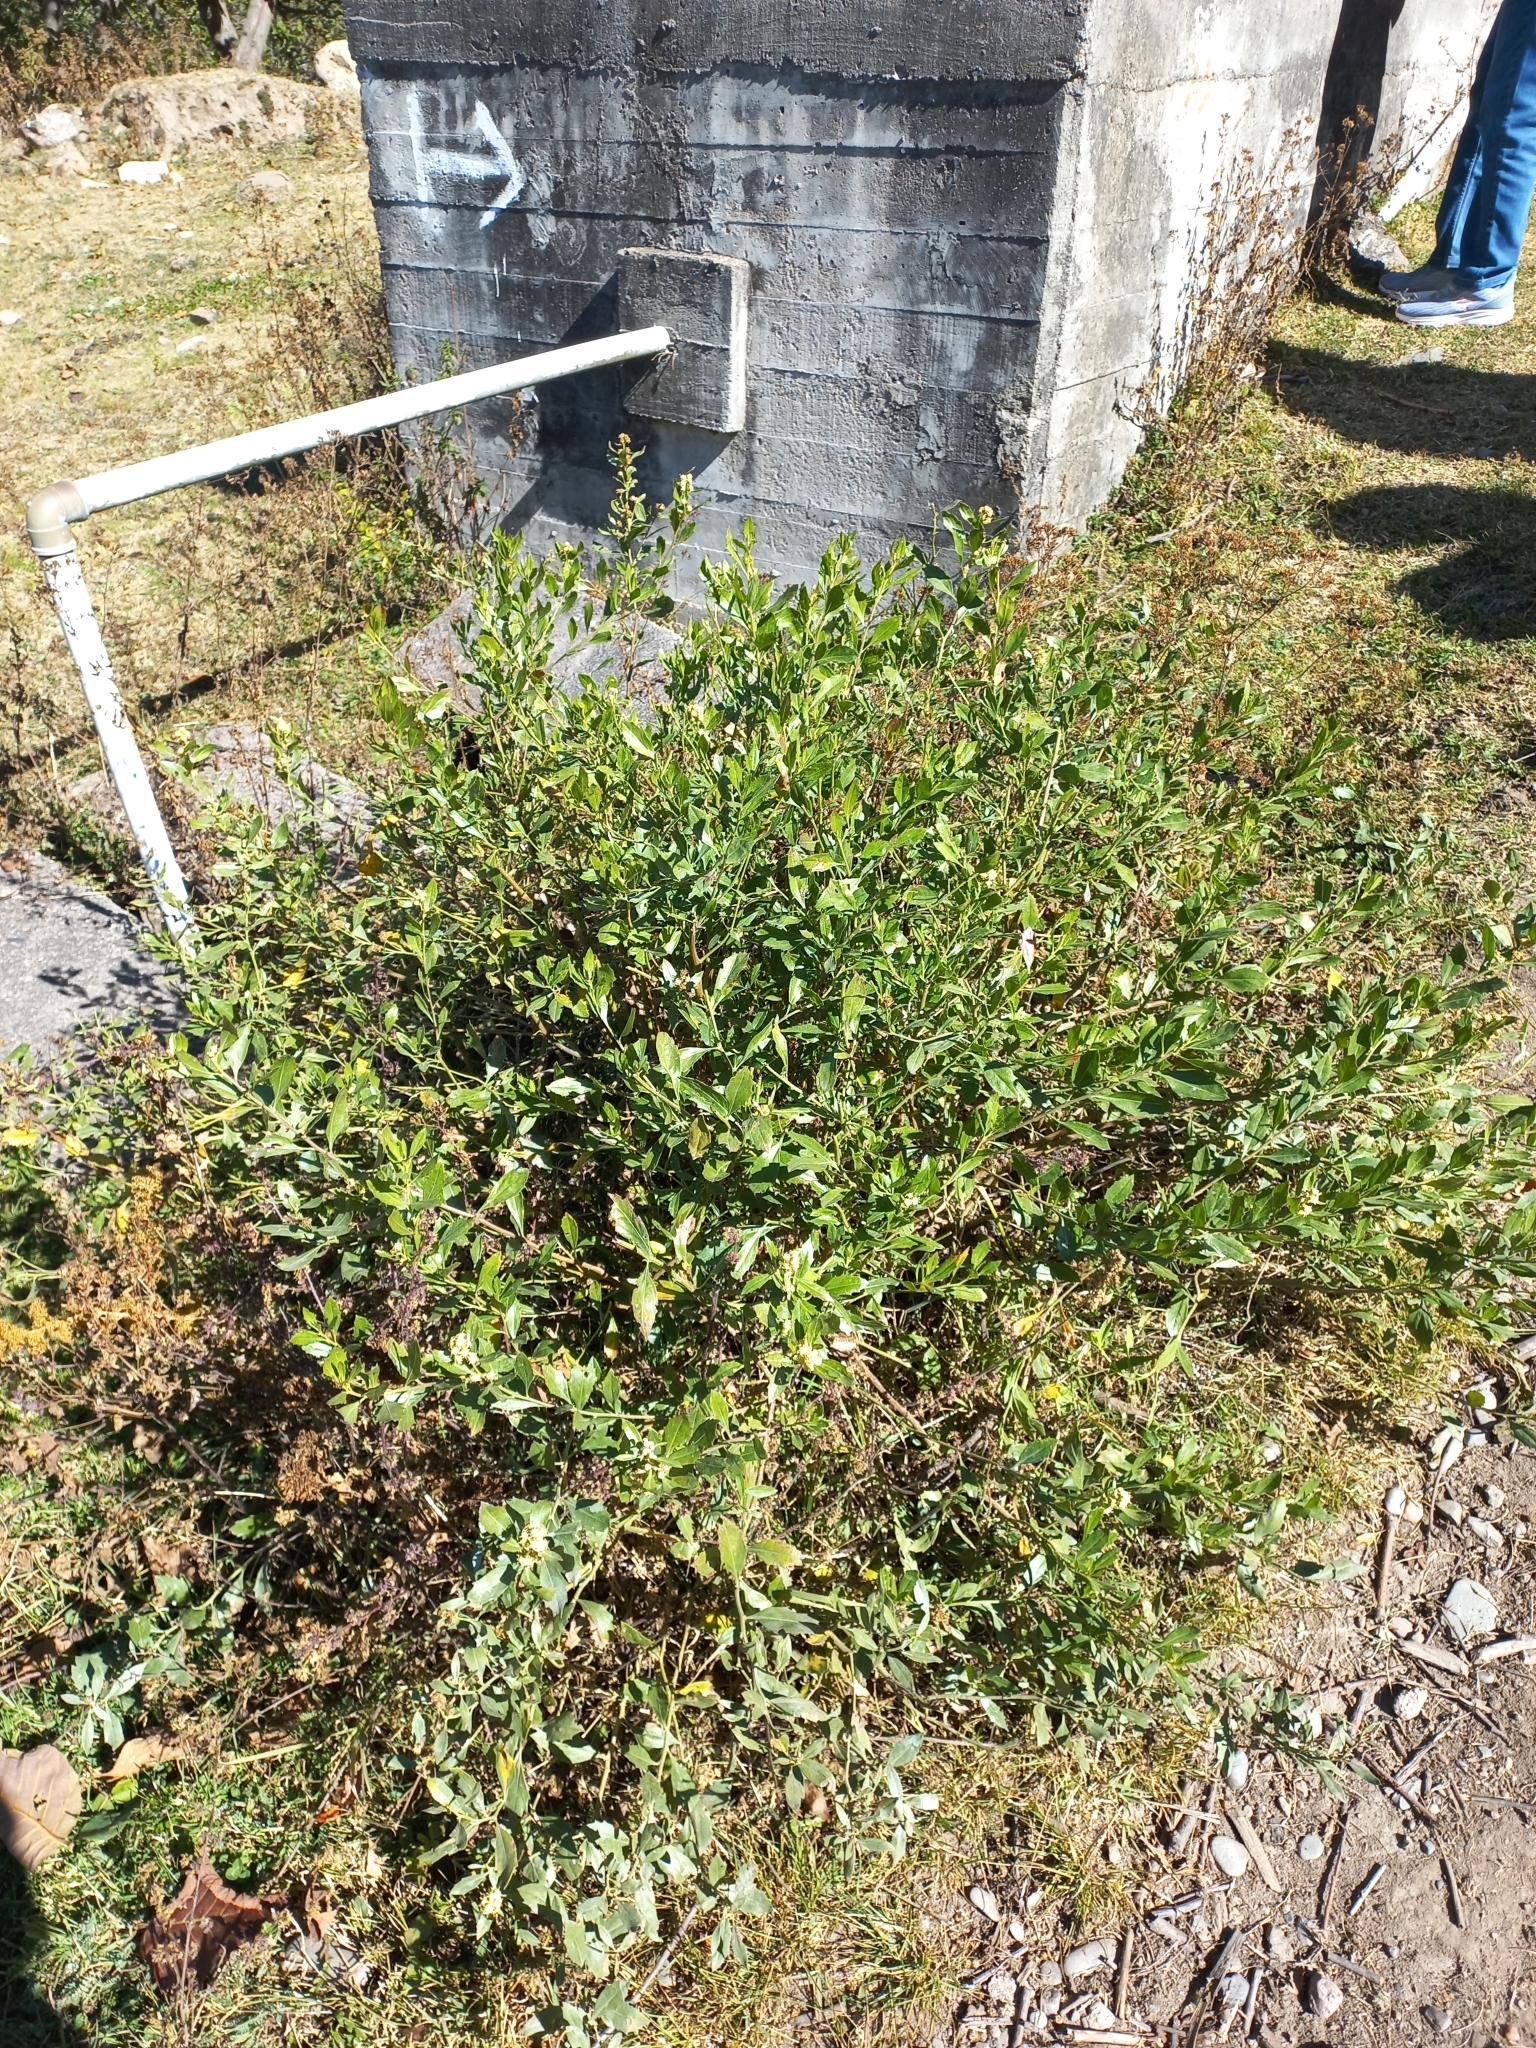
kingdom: Plantae
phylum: Tracheophyta
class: Magnoliopsida
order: Asterales
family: Asteraceae
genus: Baccharis
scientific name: Baccharis tucumanensis
